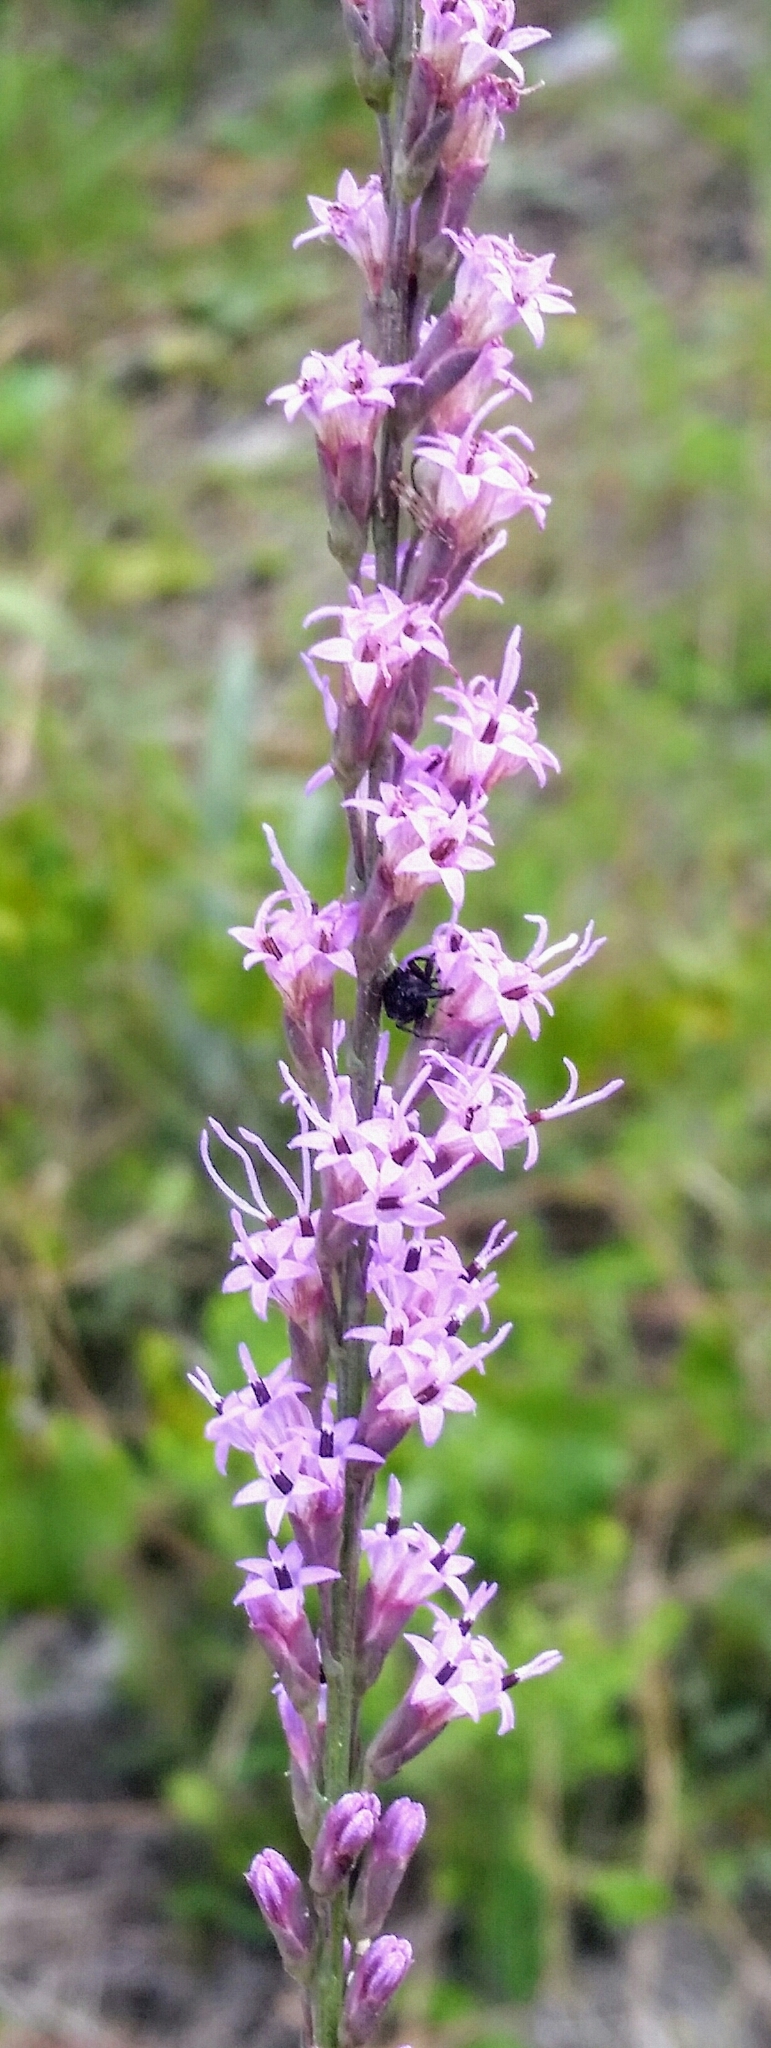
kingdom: Plantae
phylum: Tracheophyta
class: Magnoliopsida
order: Asterales
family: Asteraceae
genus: Liatris
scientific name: Liatris quadriflora
